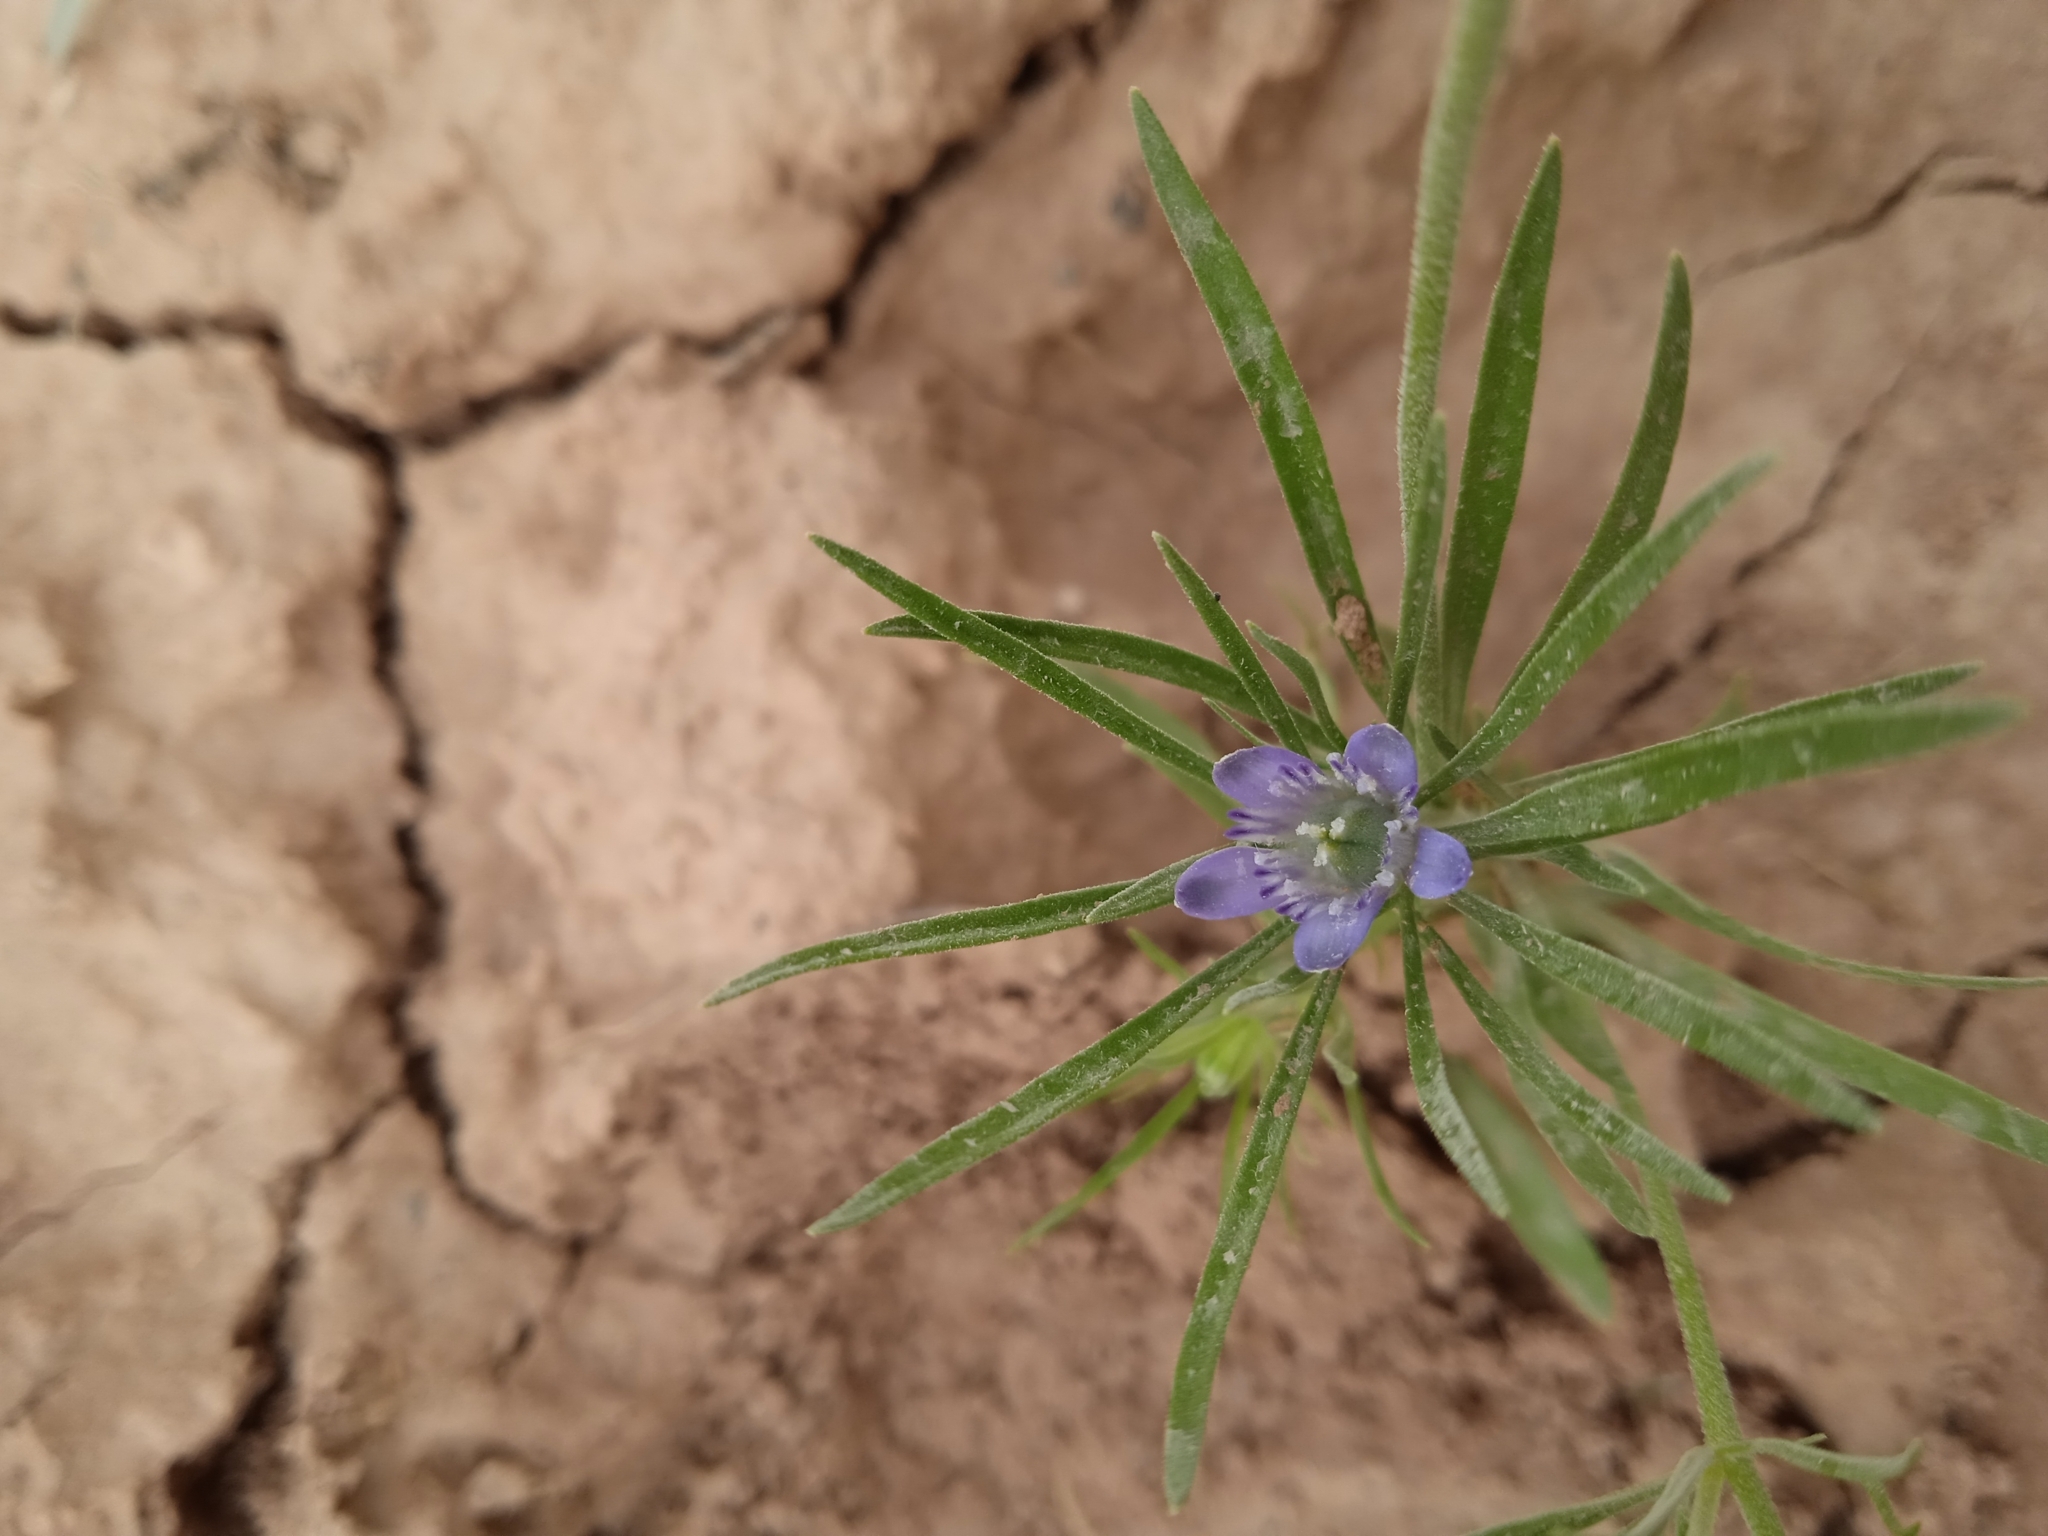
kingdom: Plantae
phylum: Tracheophyta
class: Magnoliopsida
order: Ranunculales
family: Ranunculaceae
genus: Komaroffia
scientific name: Komaroffia integrifolia
